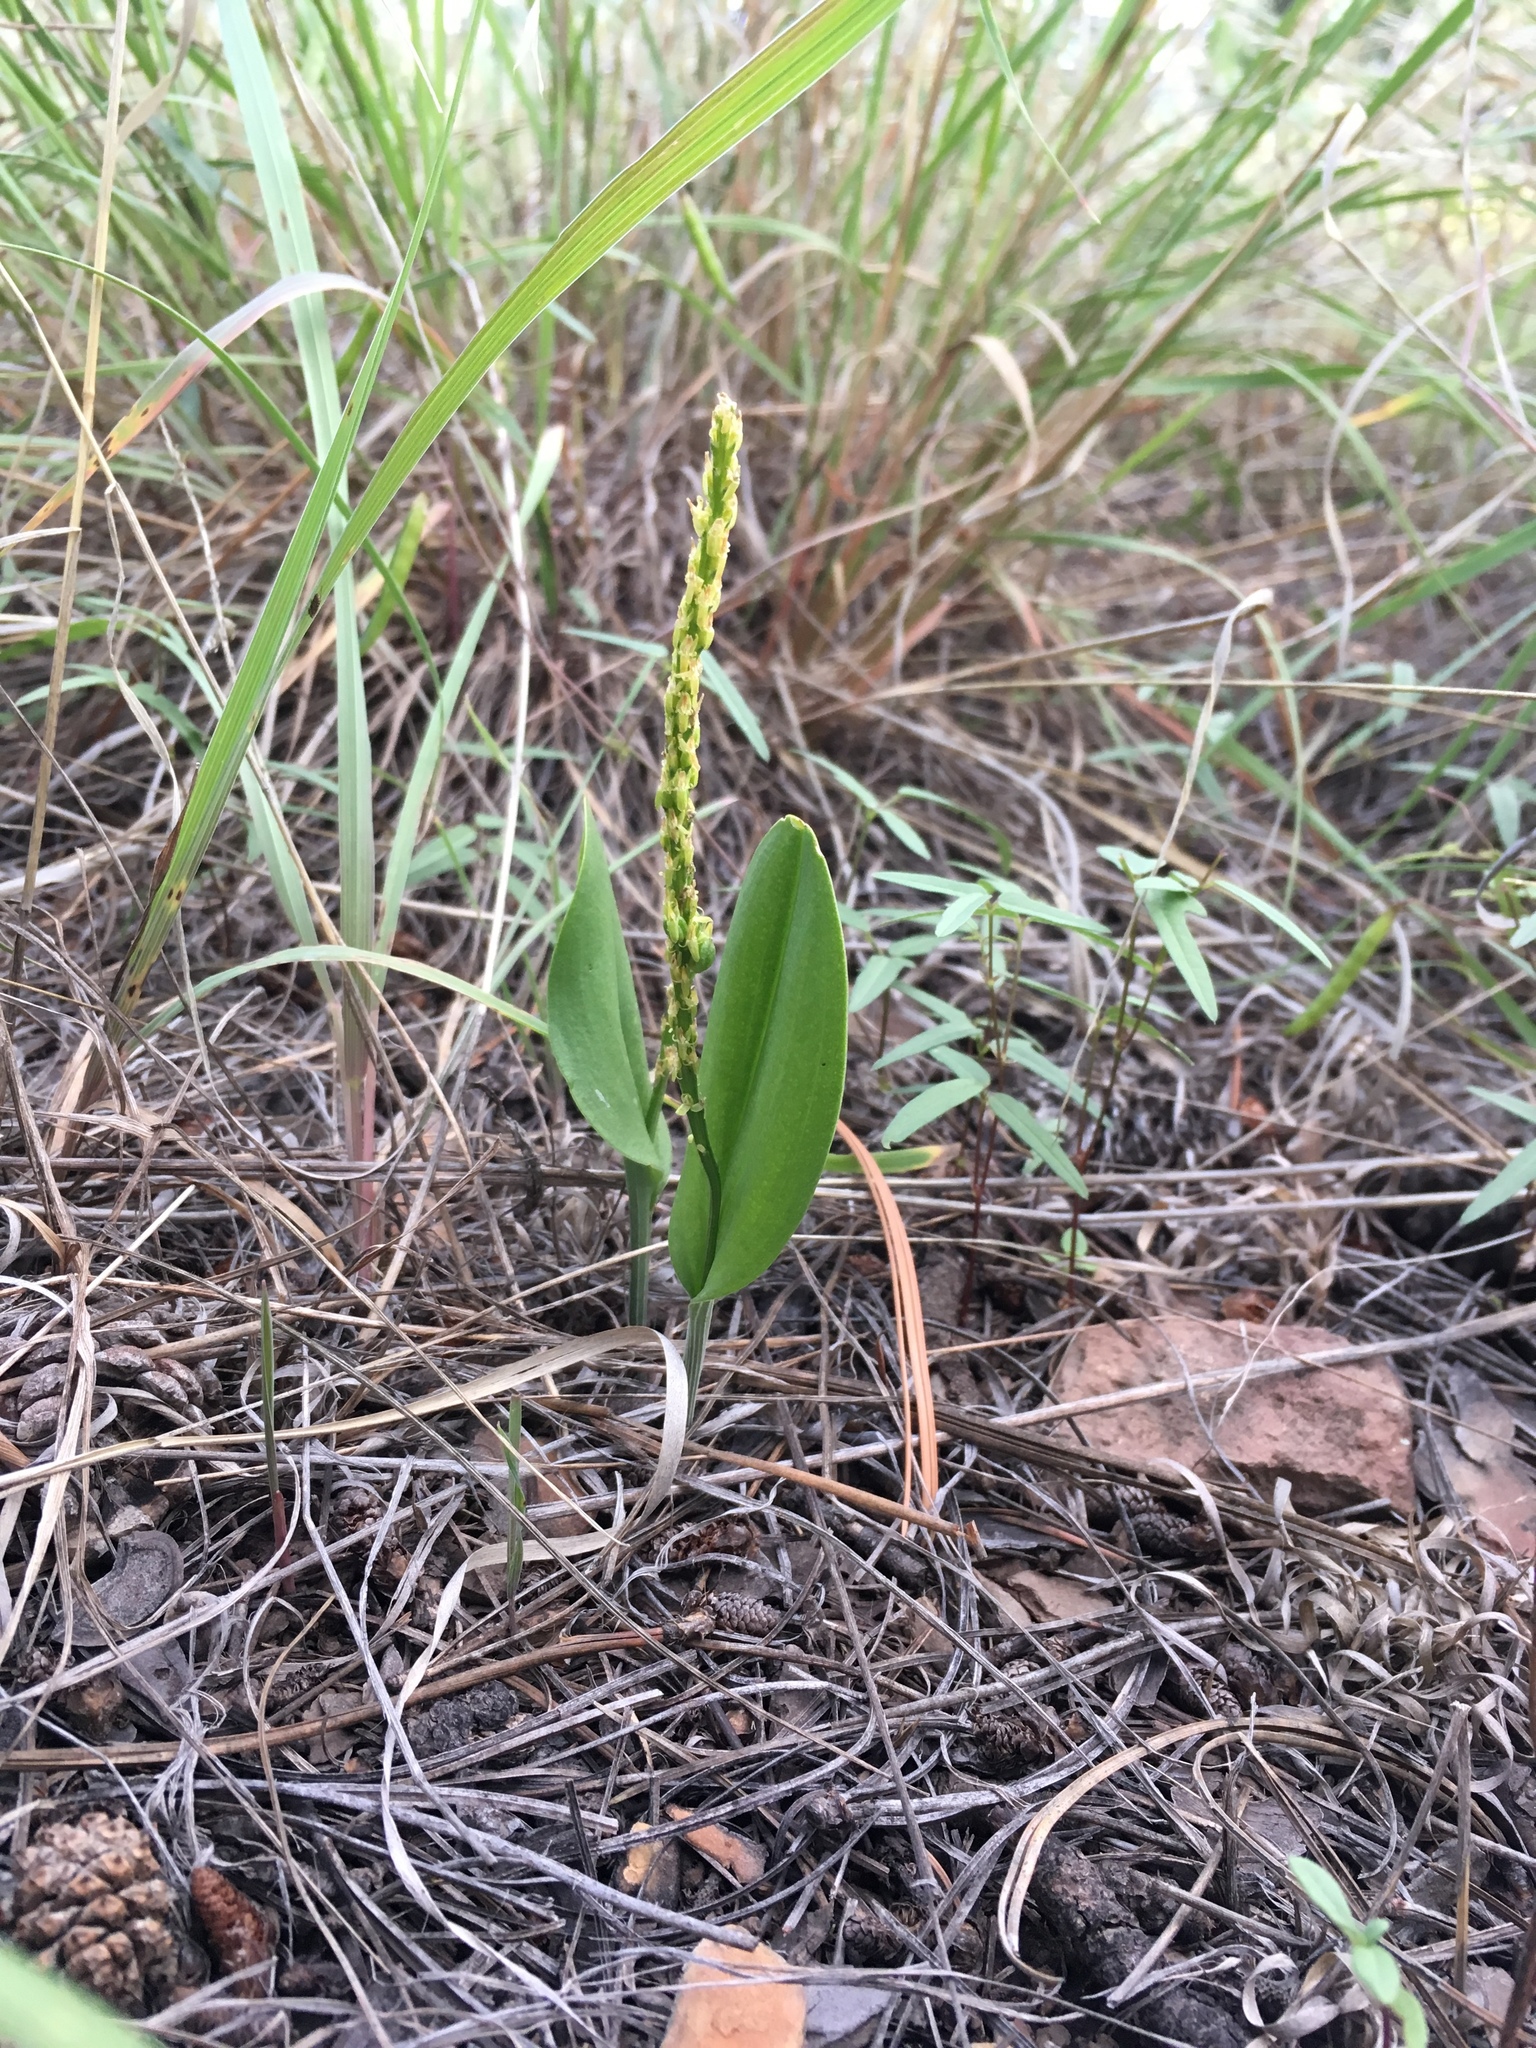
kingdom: Plantae
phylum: Tracheophyta
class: Liliopsida
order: Asparagales
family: Orchidaceae
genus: Malaxis
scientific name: Malaxis macrostachya
